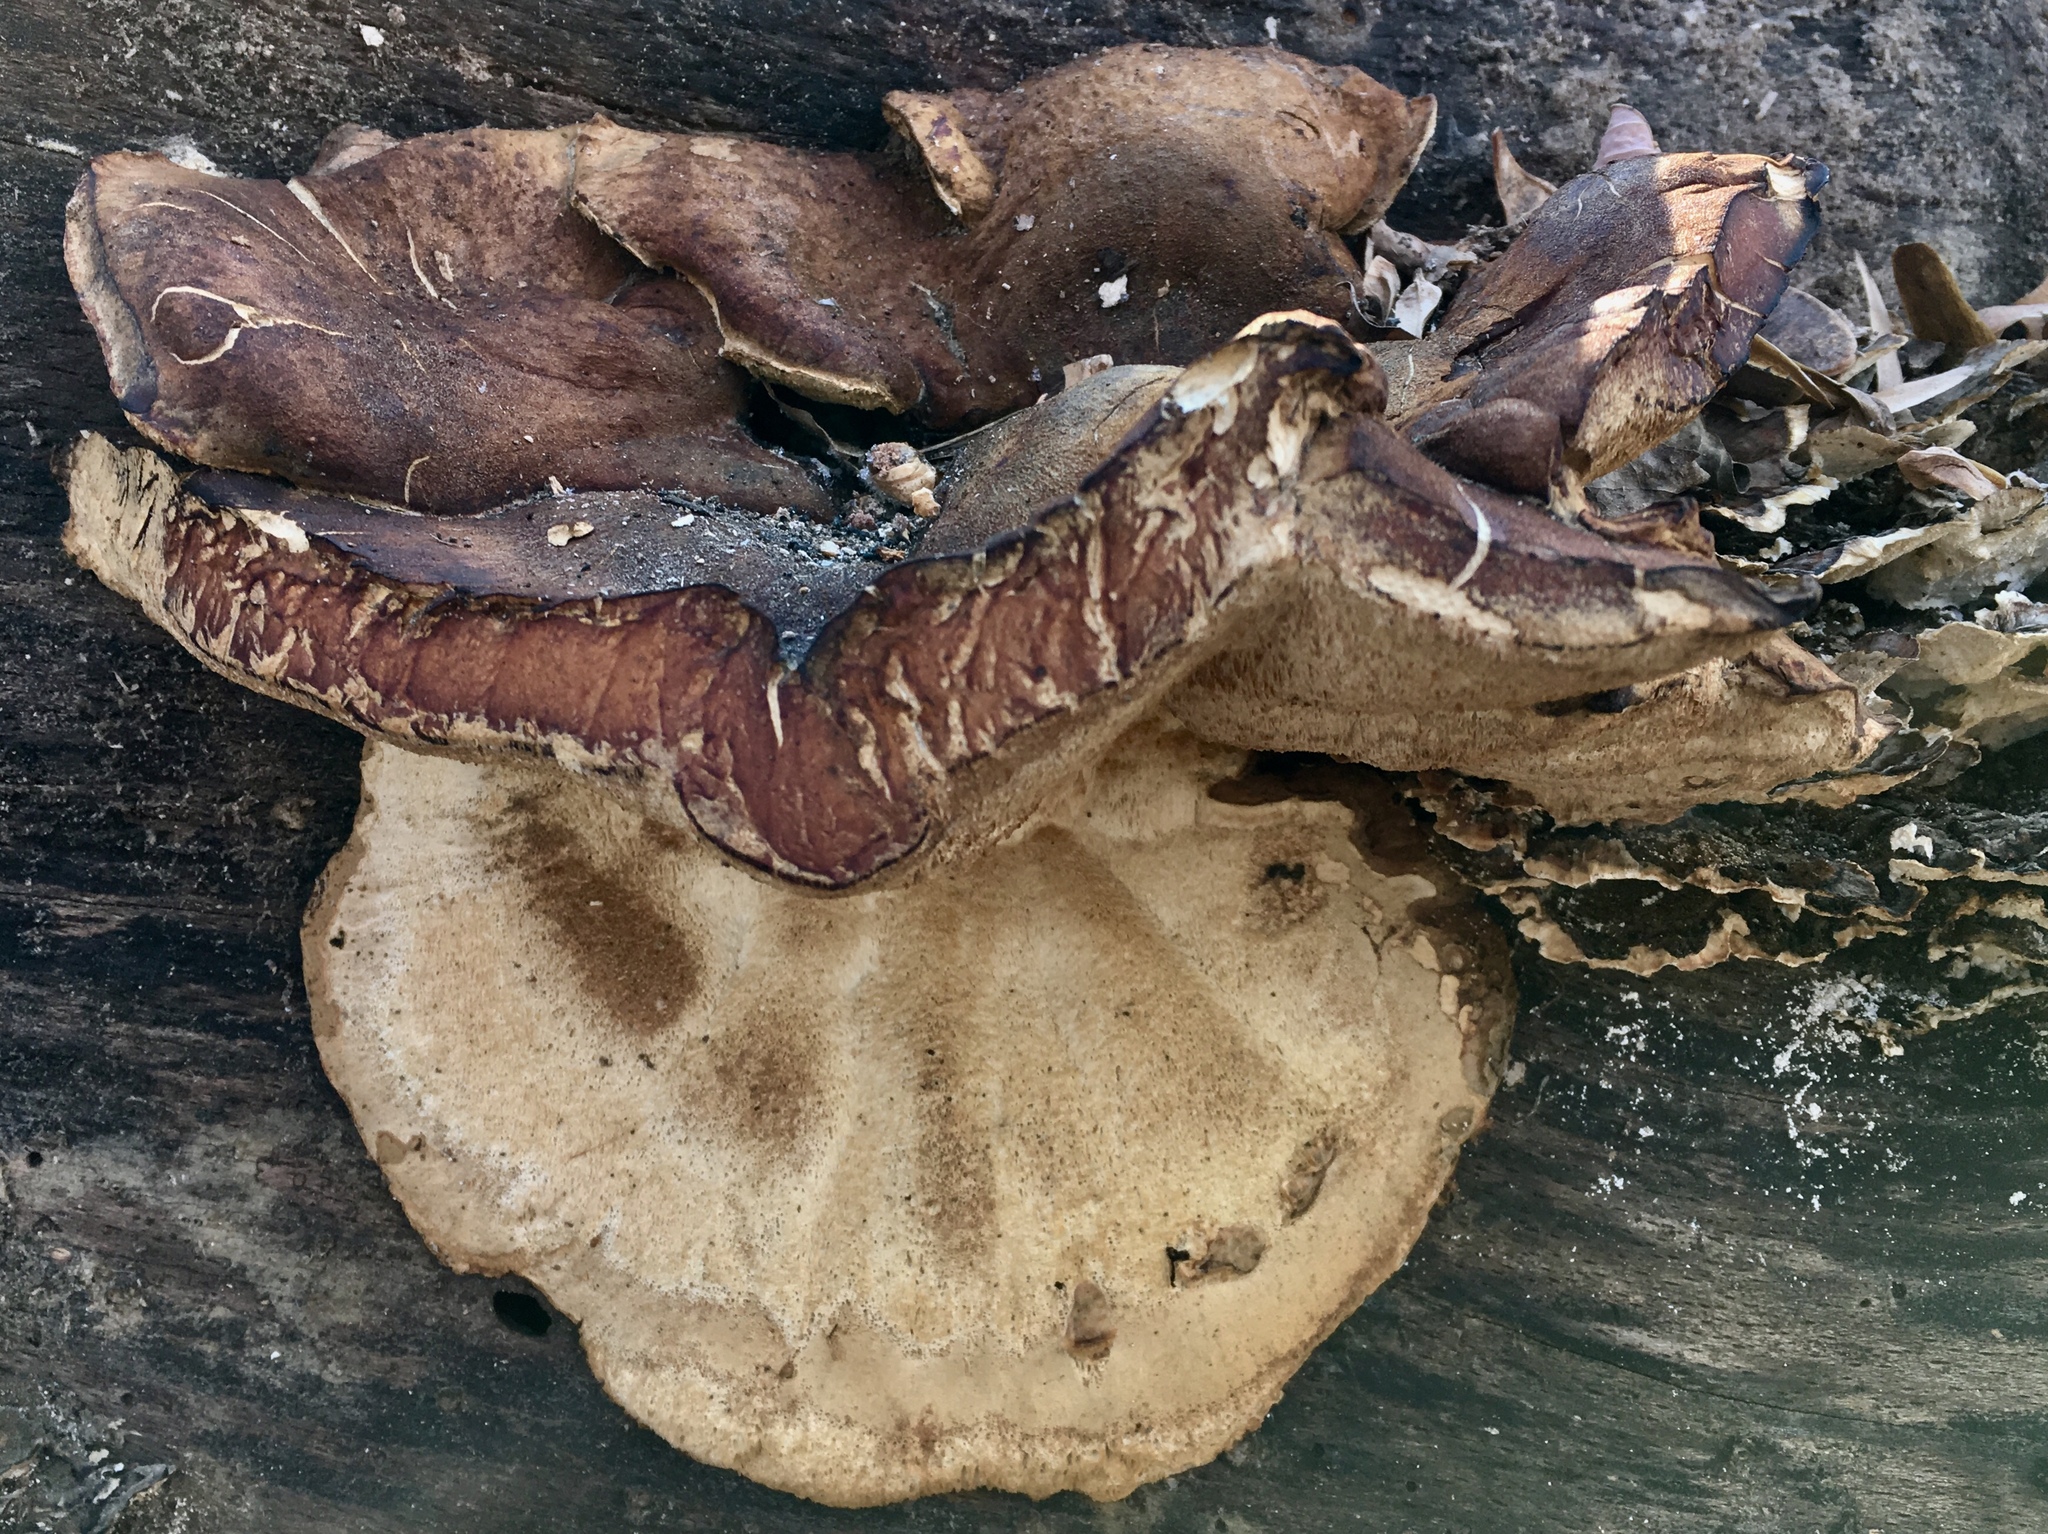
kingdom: Fungi
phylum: Basidiomycota
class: Agaricomycetes
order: Polyporales
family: Ischnodermataceae
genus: Ischnoderma
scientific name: Ischnoderma resinosum
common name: Resinous polypore
